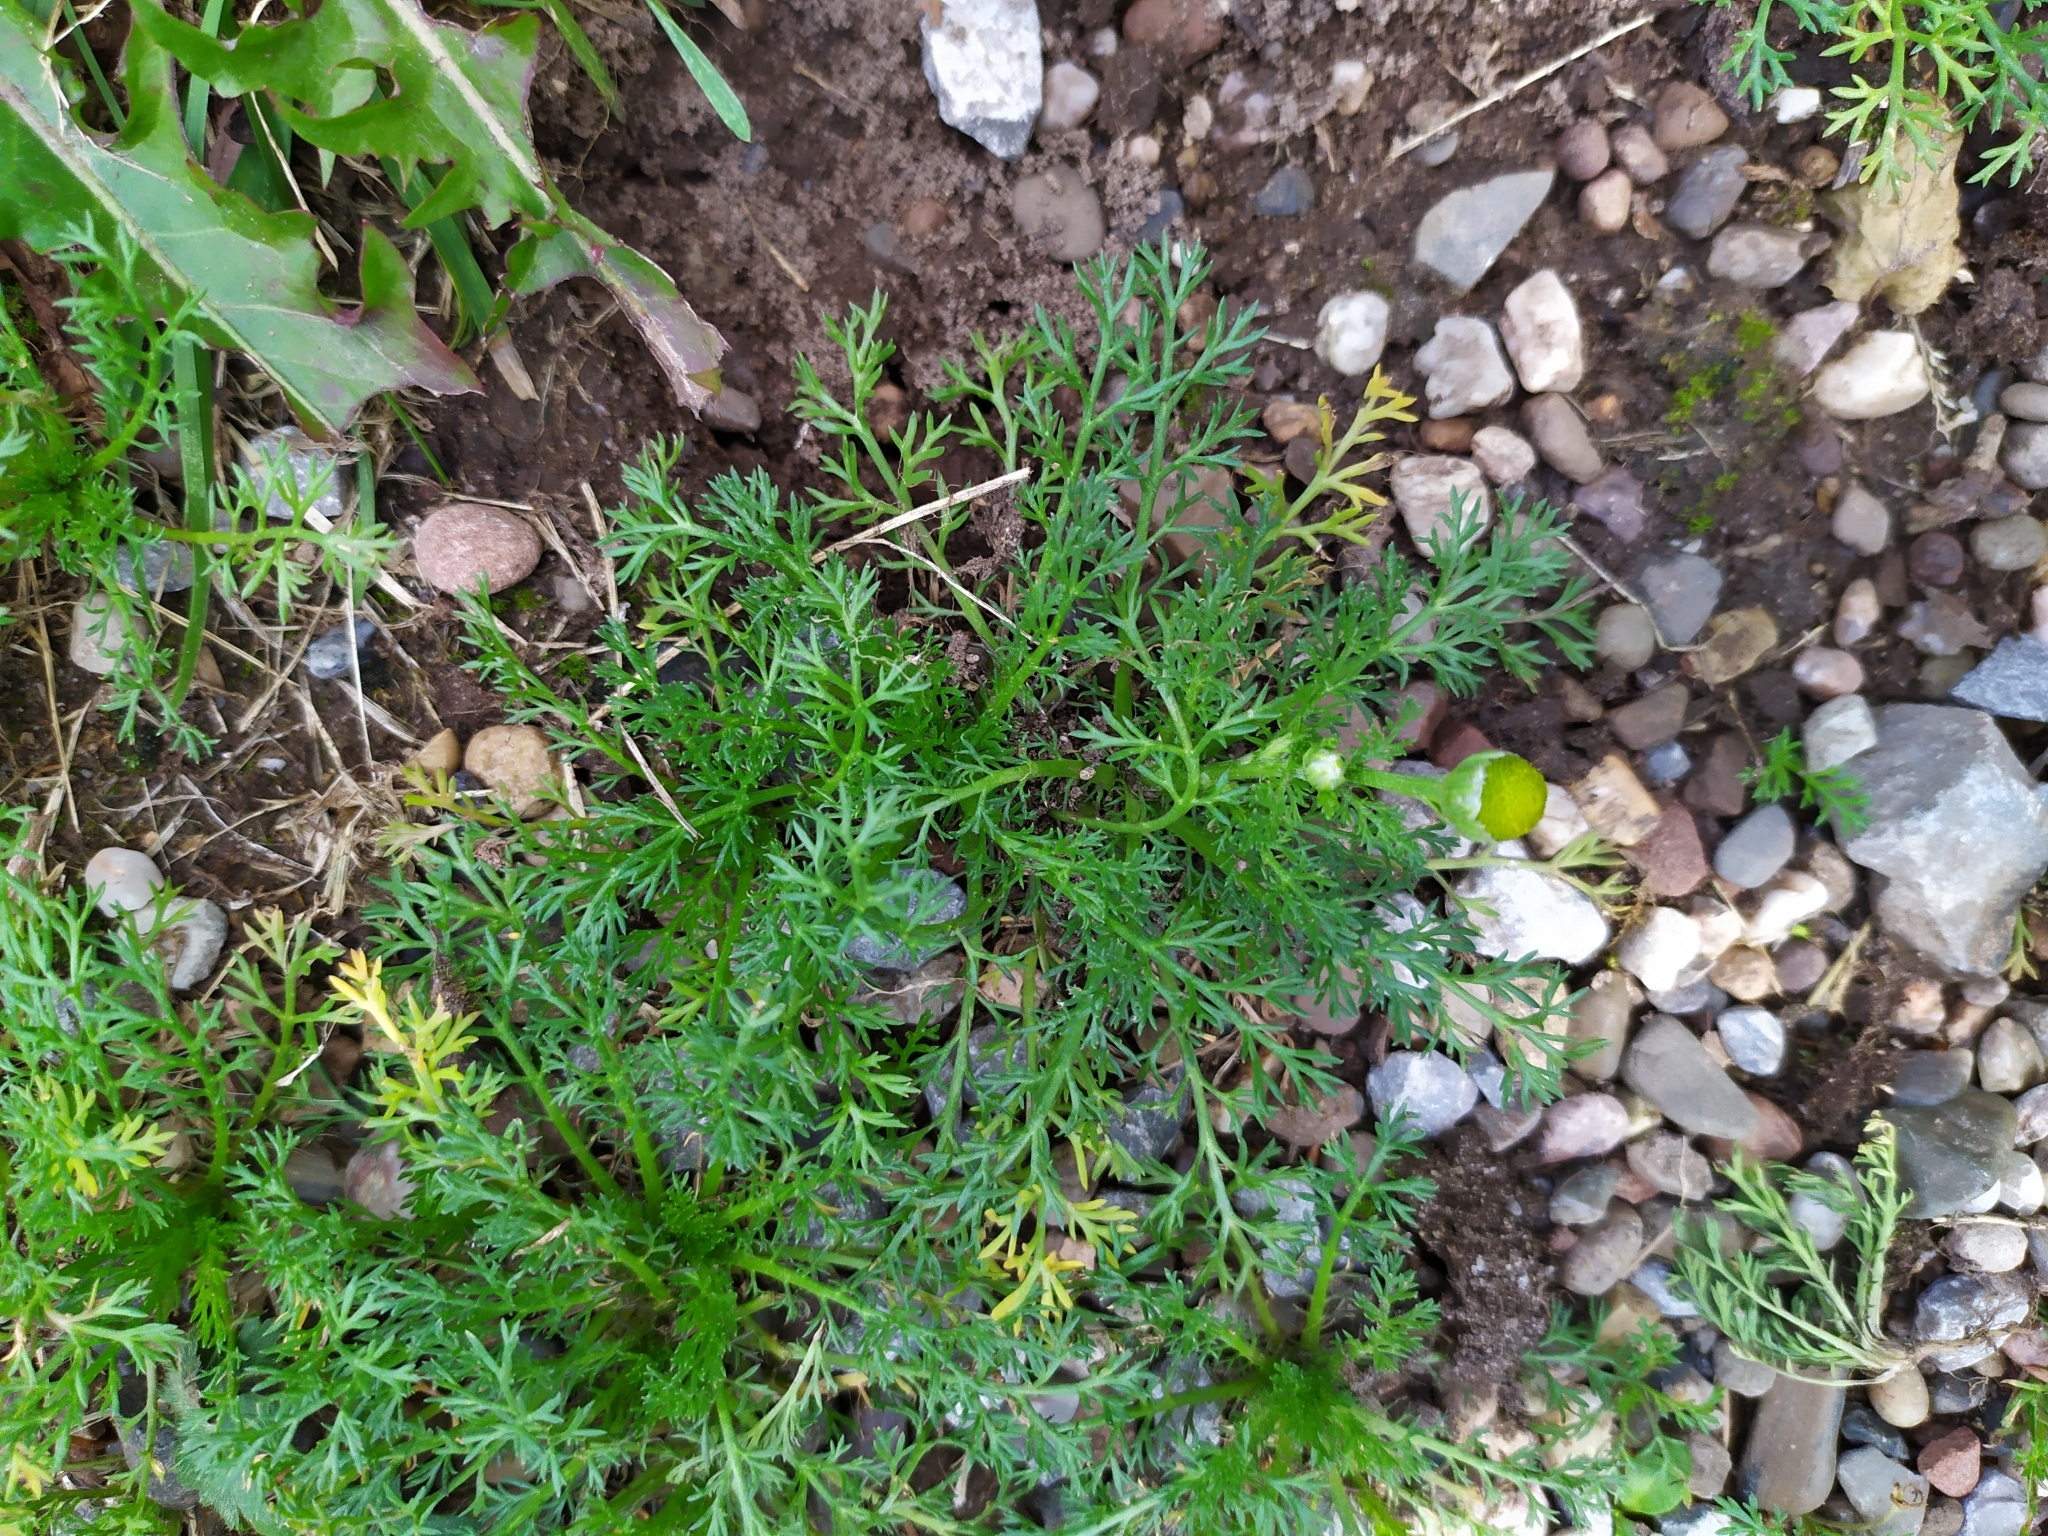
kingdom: Plantae
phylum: Tracheophyta
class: Magnoliopsida
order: Asterales
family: Asteraceae
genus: Matricaria
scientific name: Matricaria discoidea
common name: Disc mayweed
